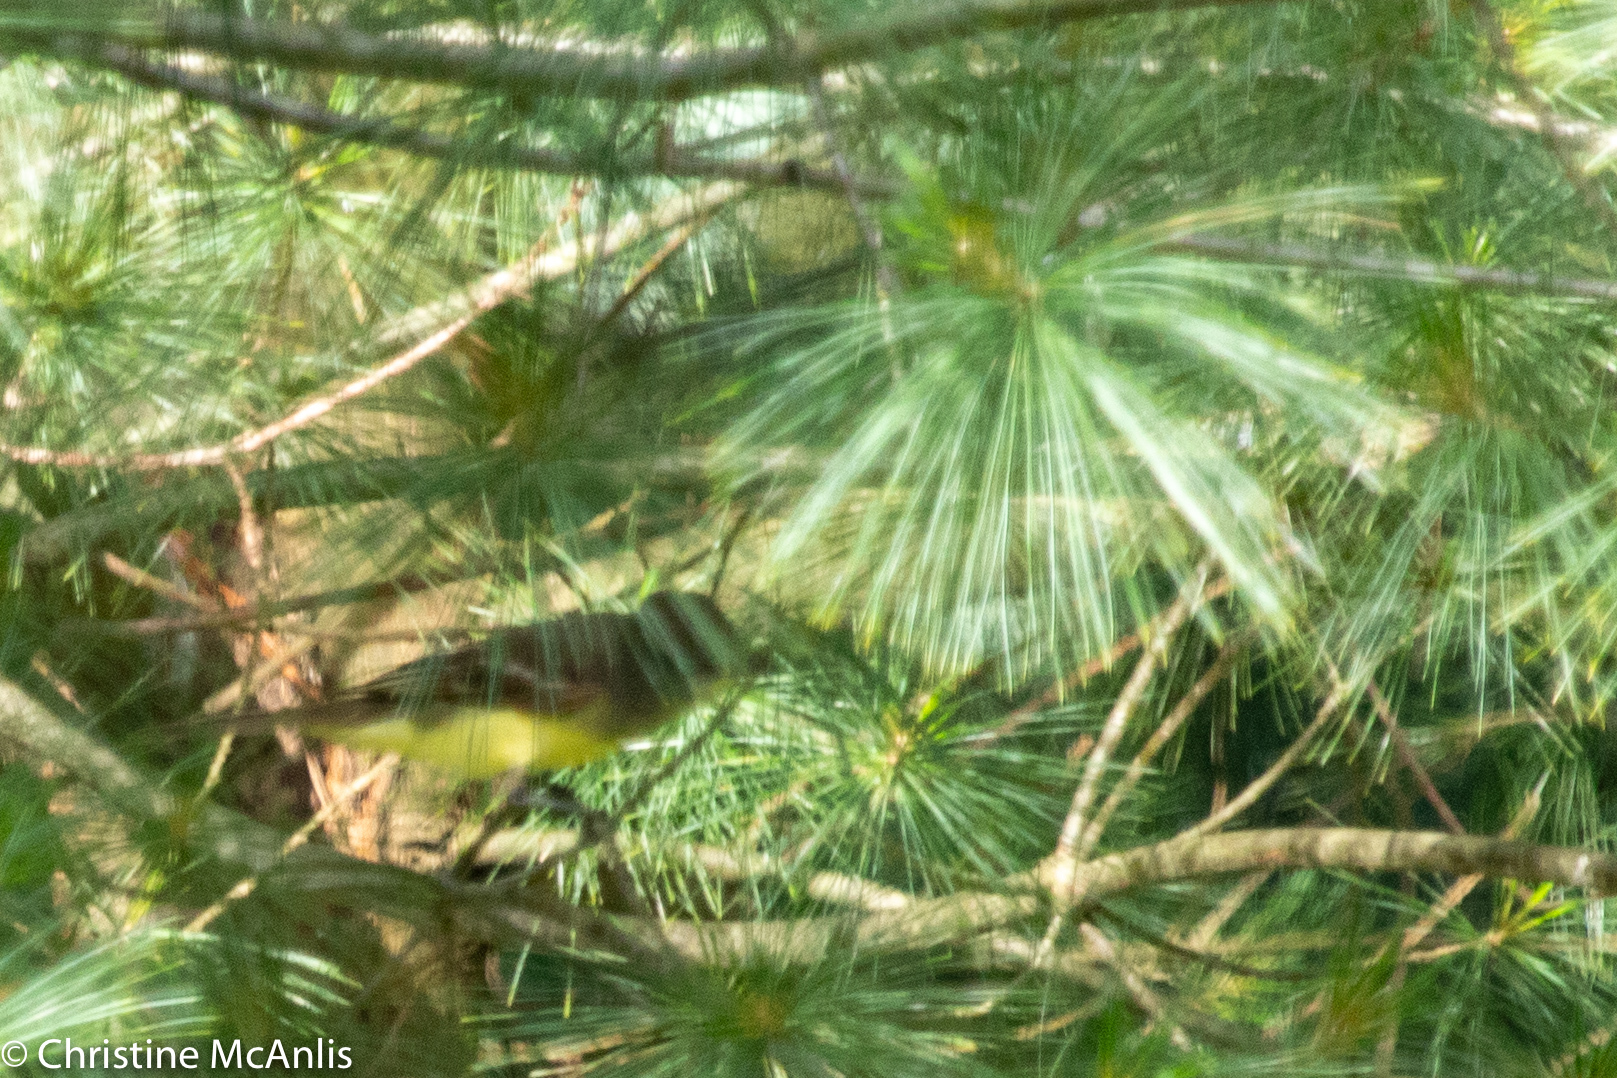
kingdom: Animalia
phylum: Chordata
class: Aves
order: Passeriformes
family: Tyrannidae
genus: Myiarchus
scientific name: Myiarchus crinitus
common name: Great crested flycatcher
